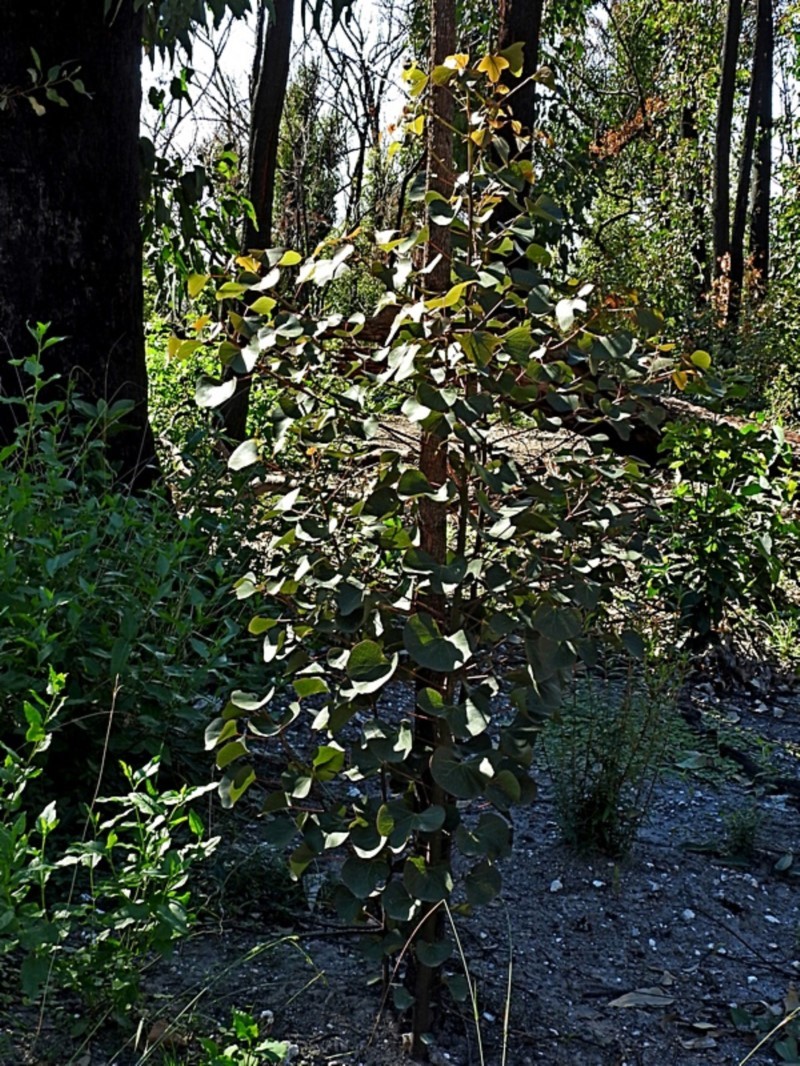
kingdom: Plantae
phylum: Tracheophyta
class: Magnoliopsida
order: Malvales
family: Malvaceae
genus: Brachychiton
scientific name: Brachychiton populneus
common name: Kurrajong
